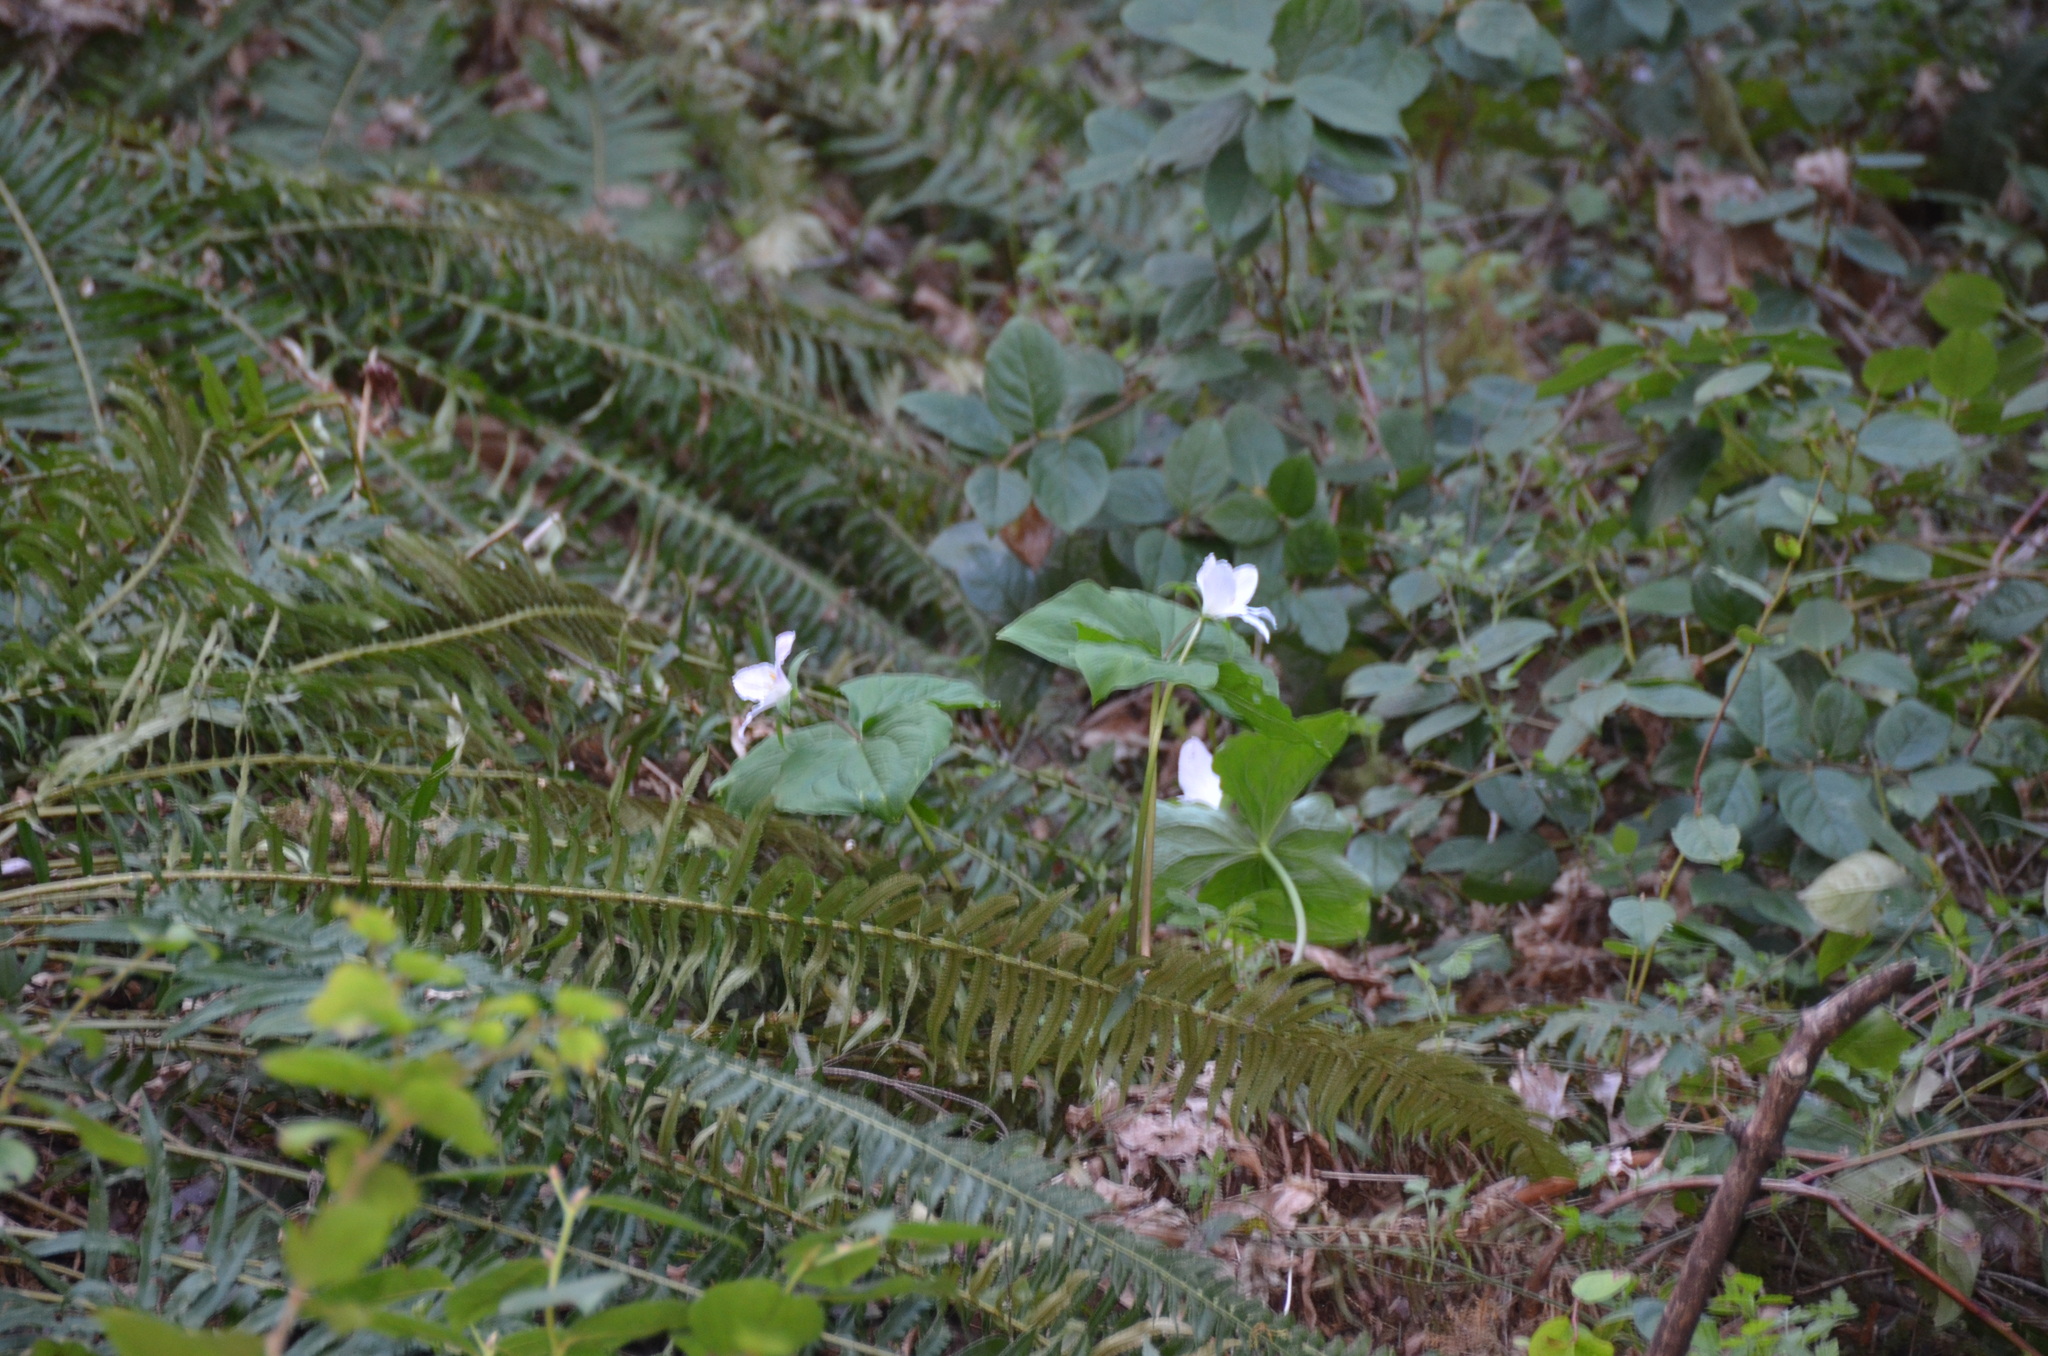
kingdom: Plantae
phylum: Tracheophyta
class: Liliopsida
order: Liliales
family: Melanthiaceae
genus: Trillium
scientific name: Trillium ovatum
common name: Pacific trillium
